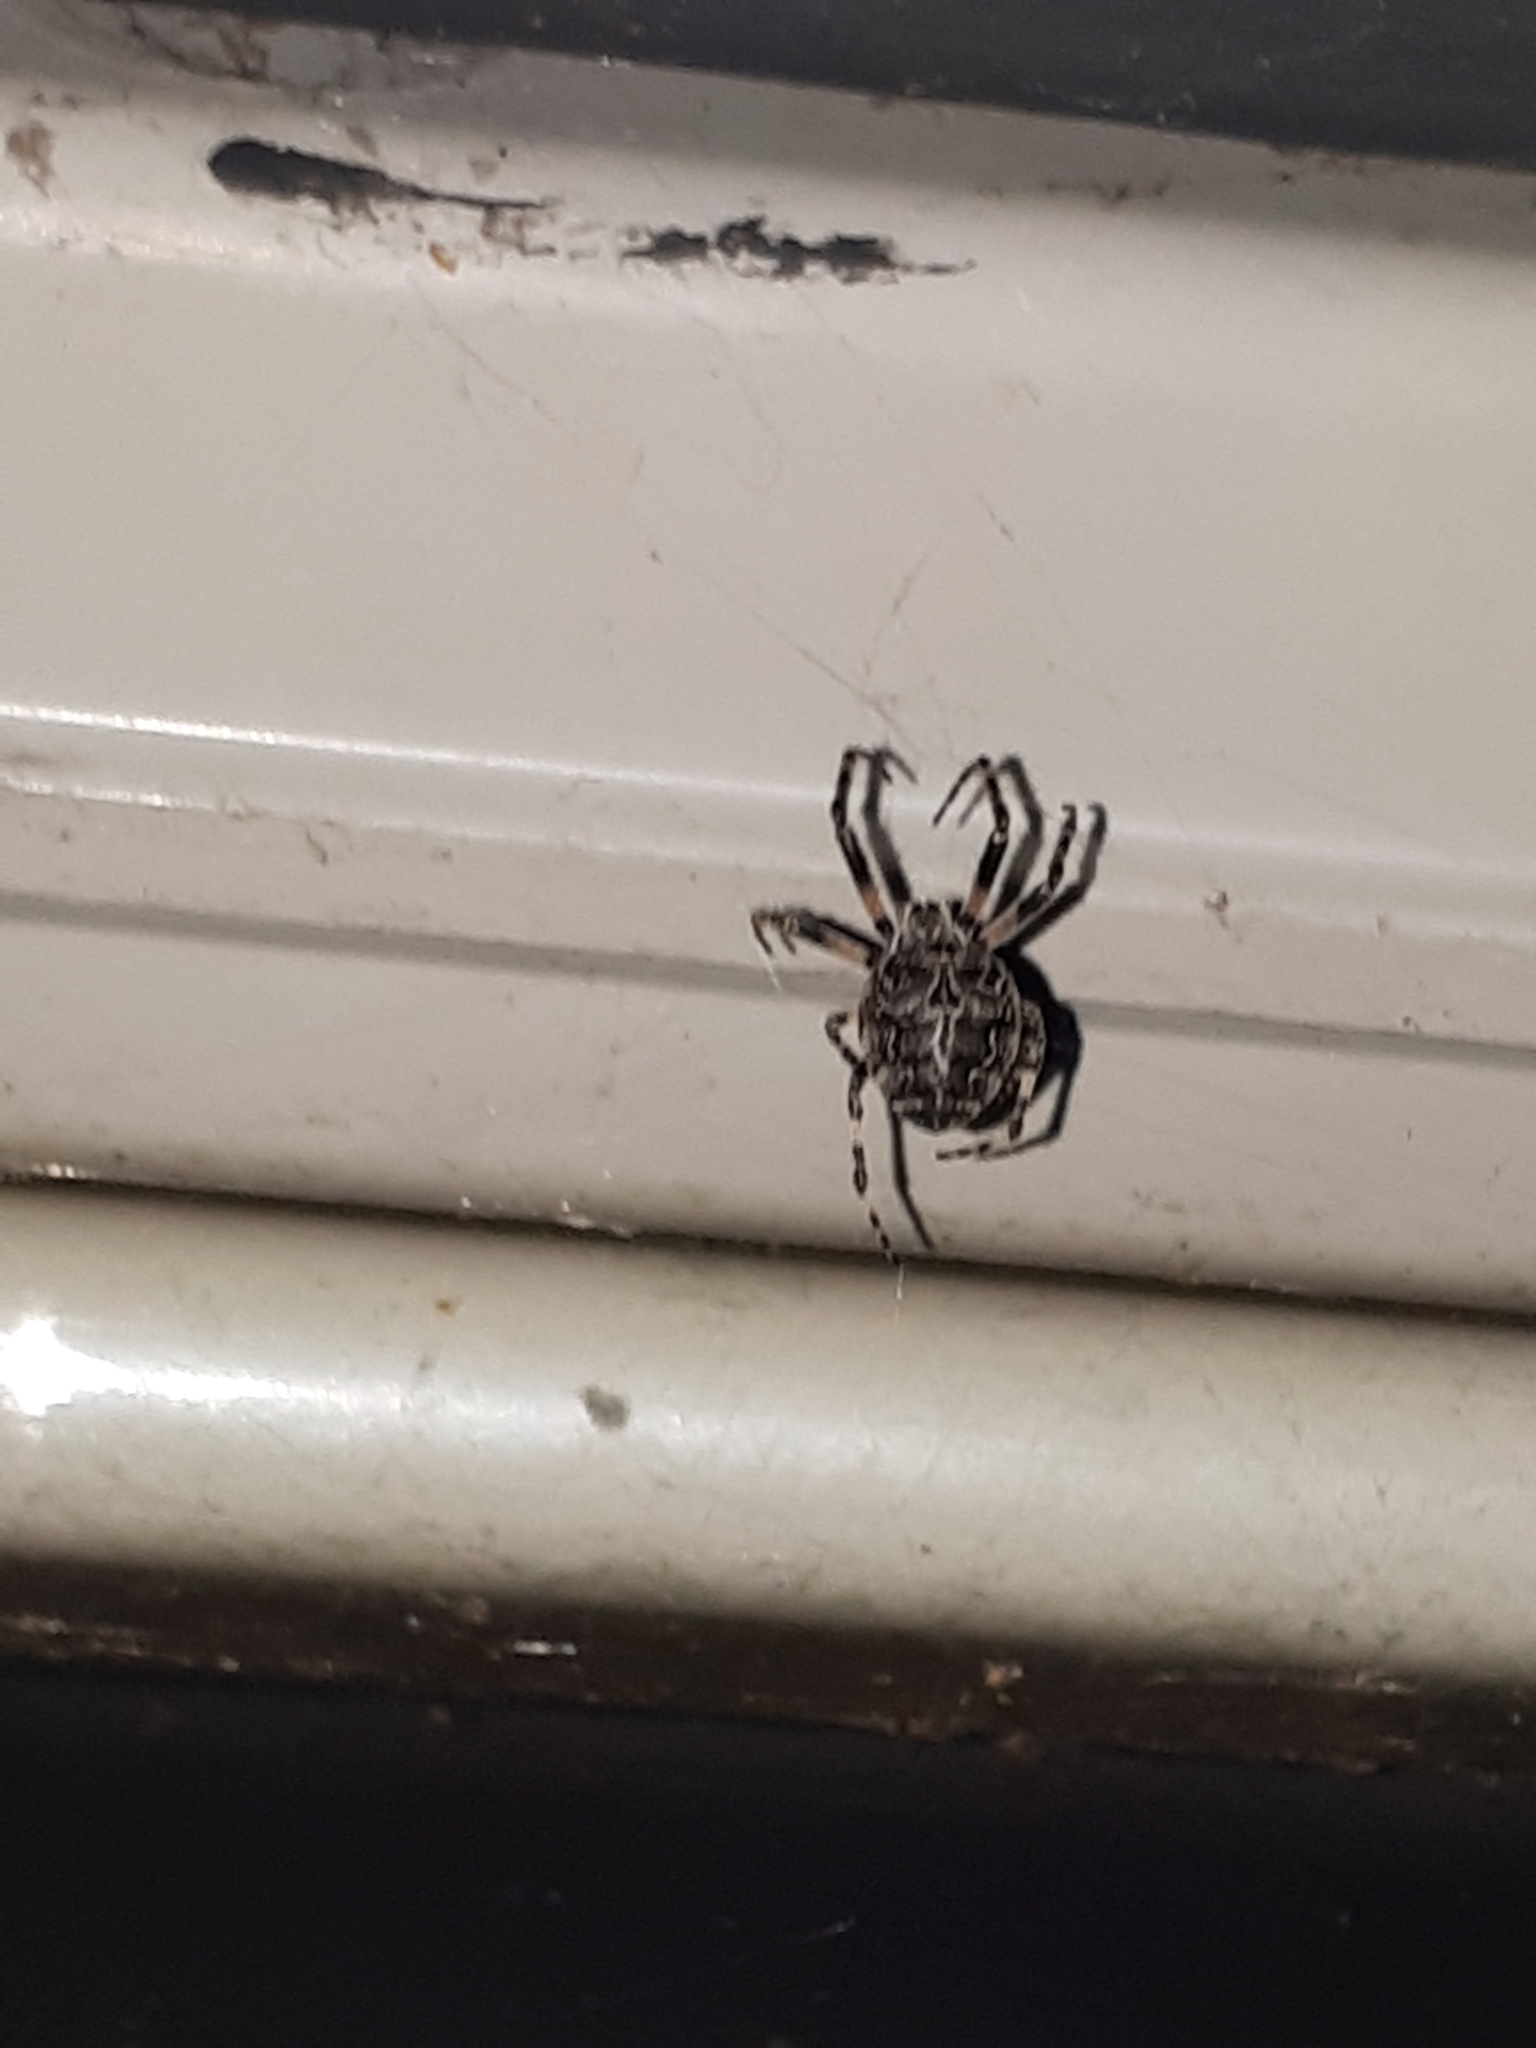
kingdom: Animalia
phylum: Arthropoda
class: Arachnida
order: Araneae
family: Araneidae
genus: Larinioides
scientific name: Larinioides sclopetarius
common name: Bridge orbweaver
